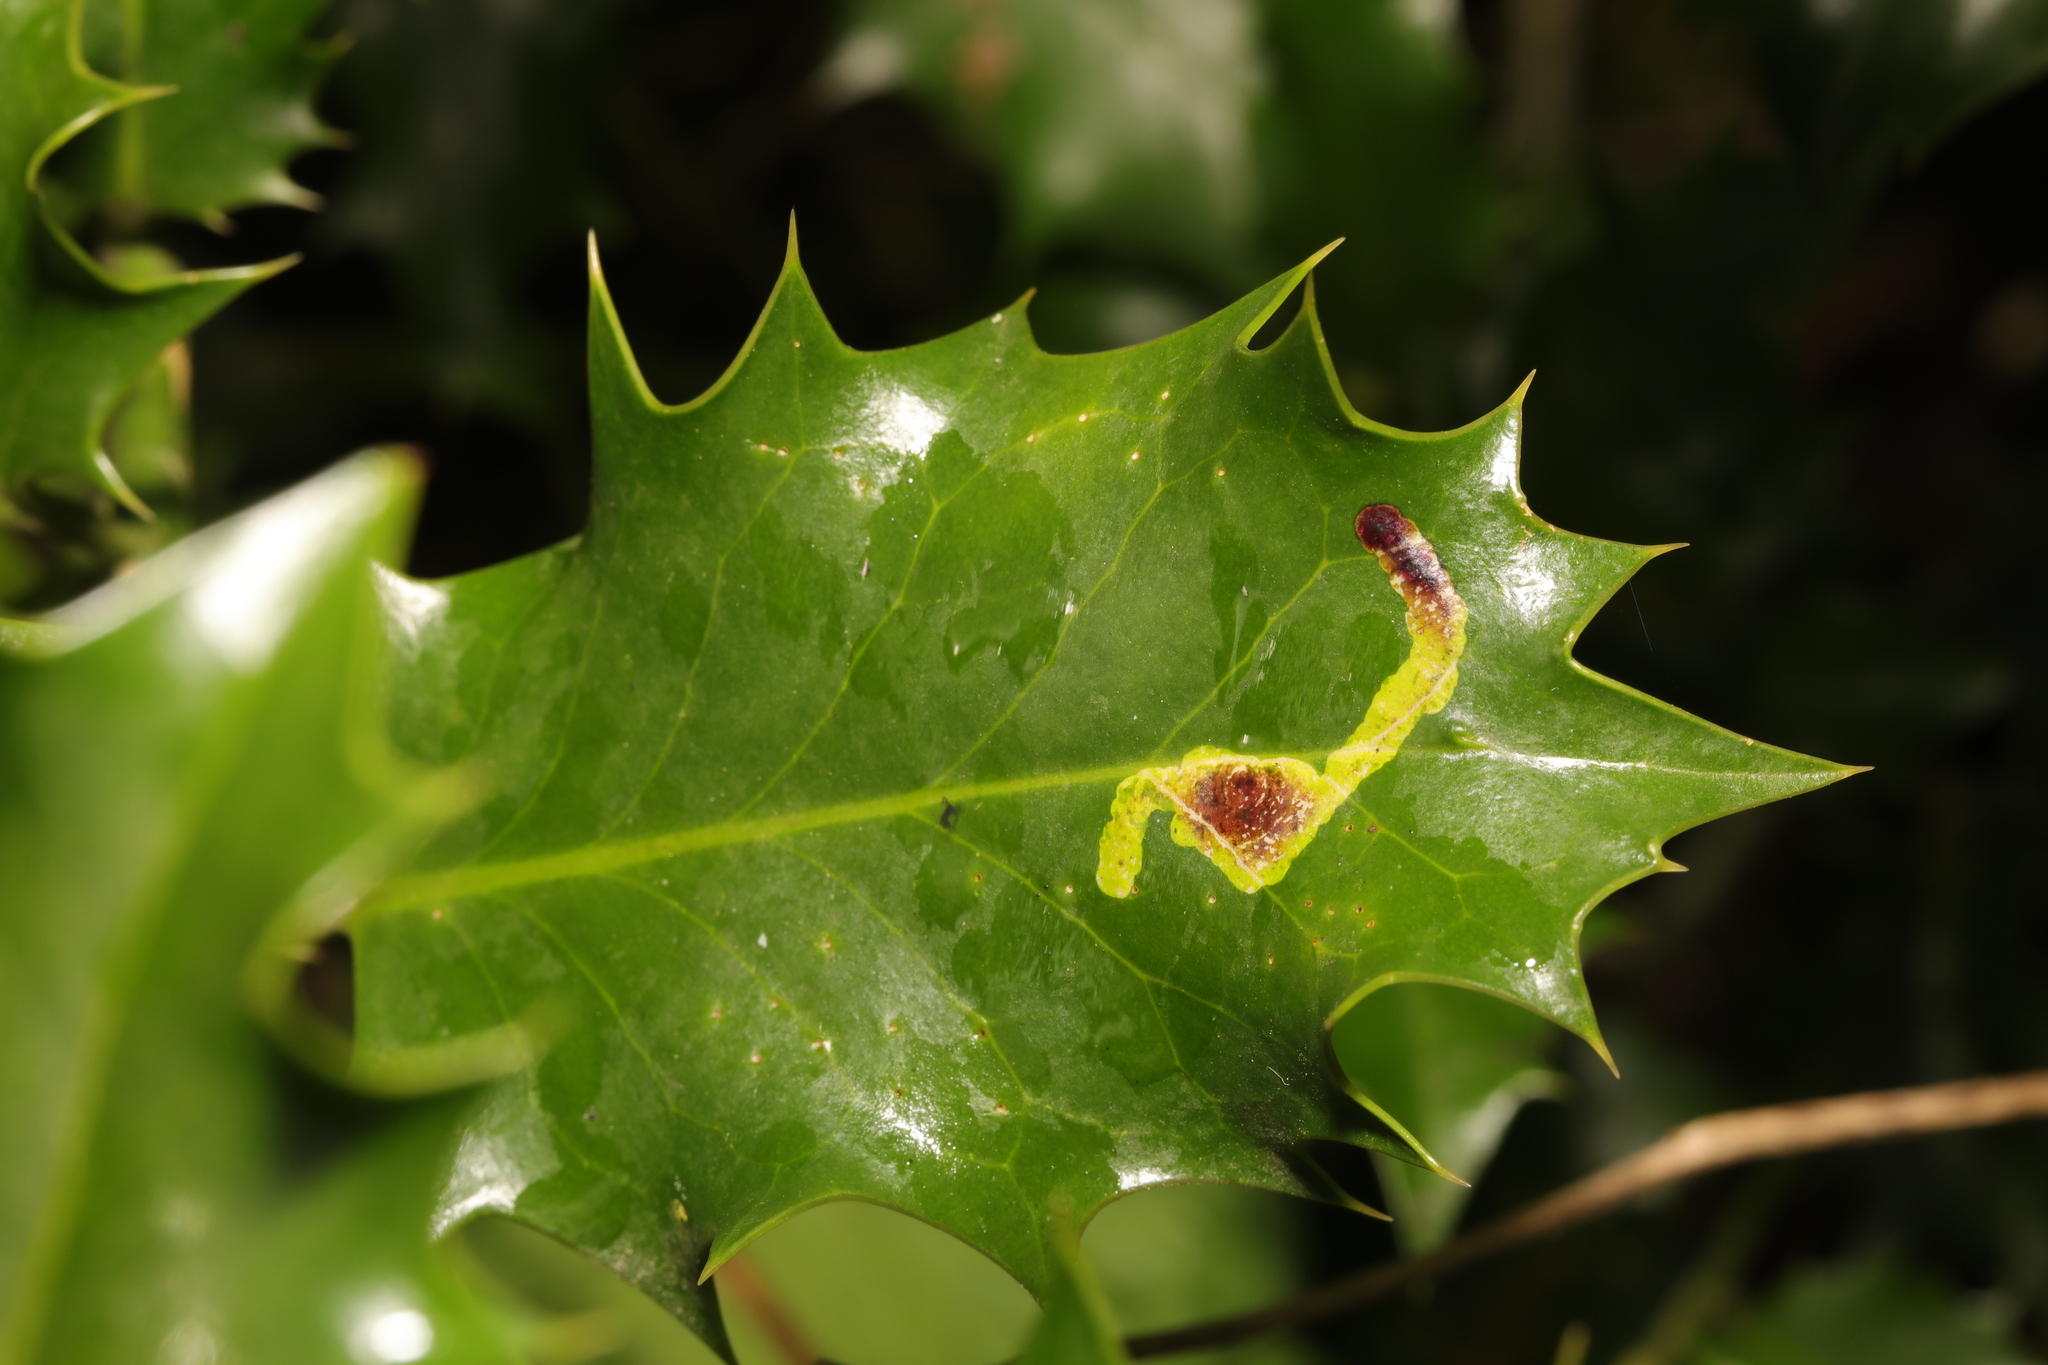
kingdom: Animalia
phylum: Arthropoda
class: Insecta
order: Diptera
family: Agromyzidae
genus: Phytomyza
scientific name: Phytomyza ilicis
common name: Holly leafminer
